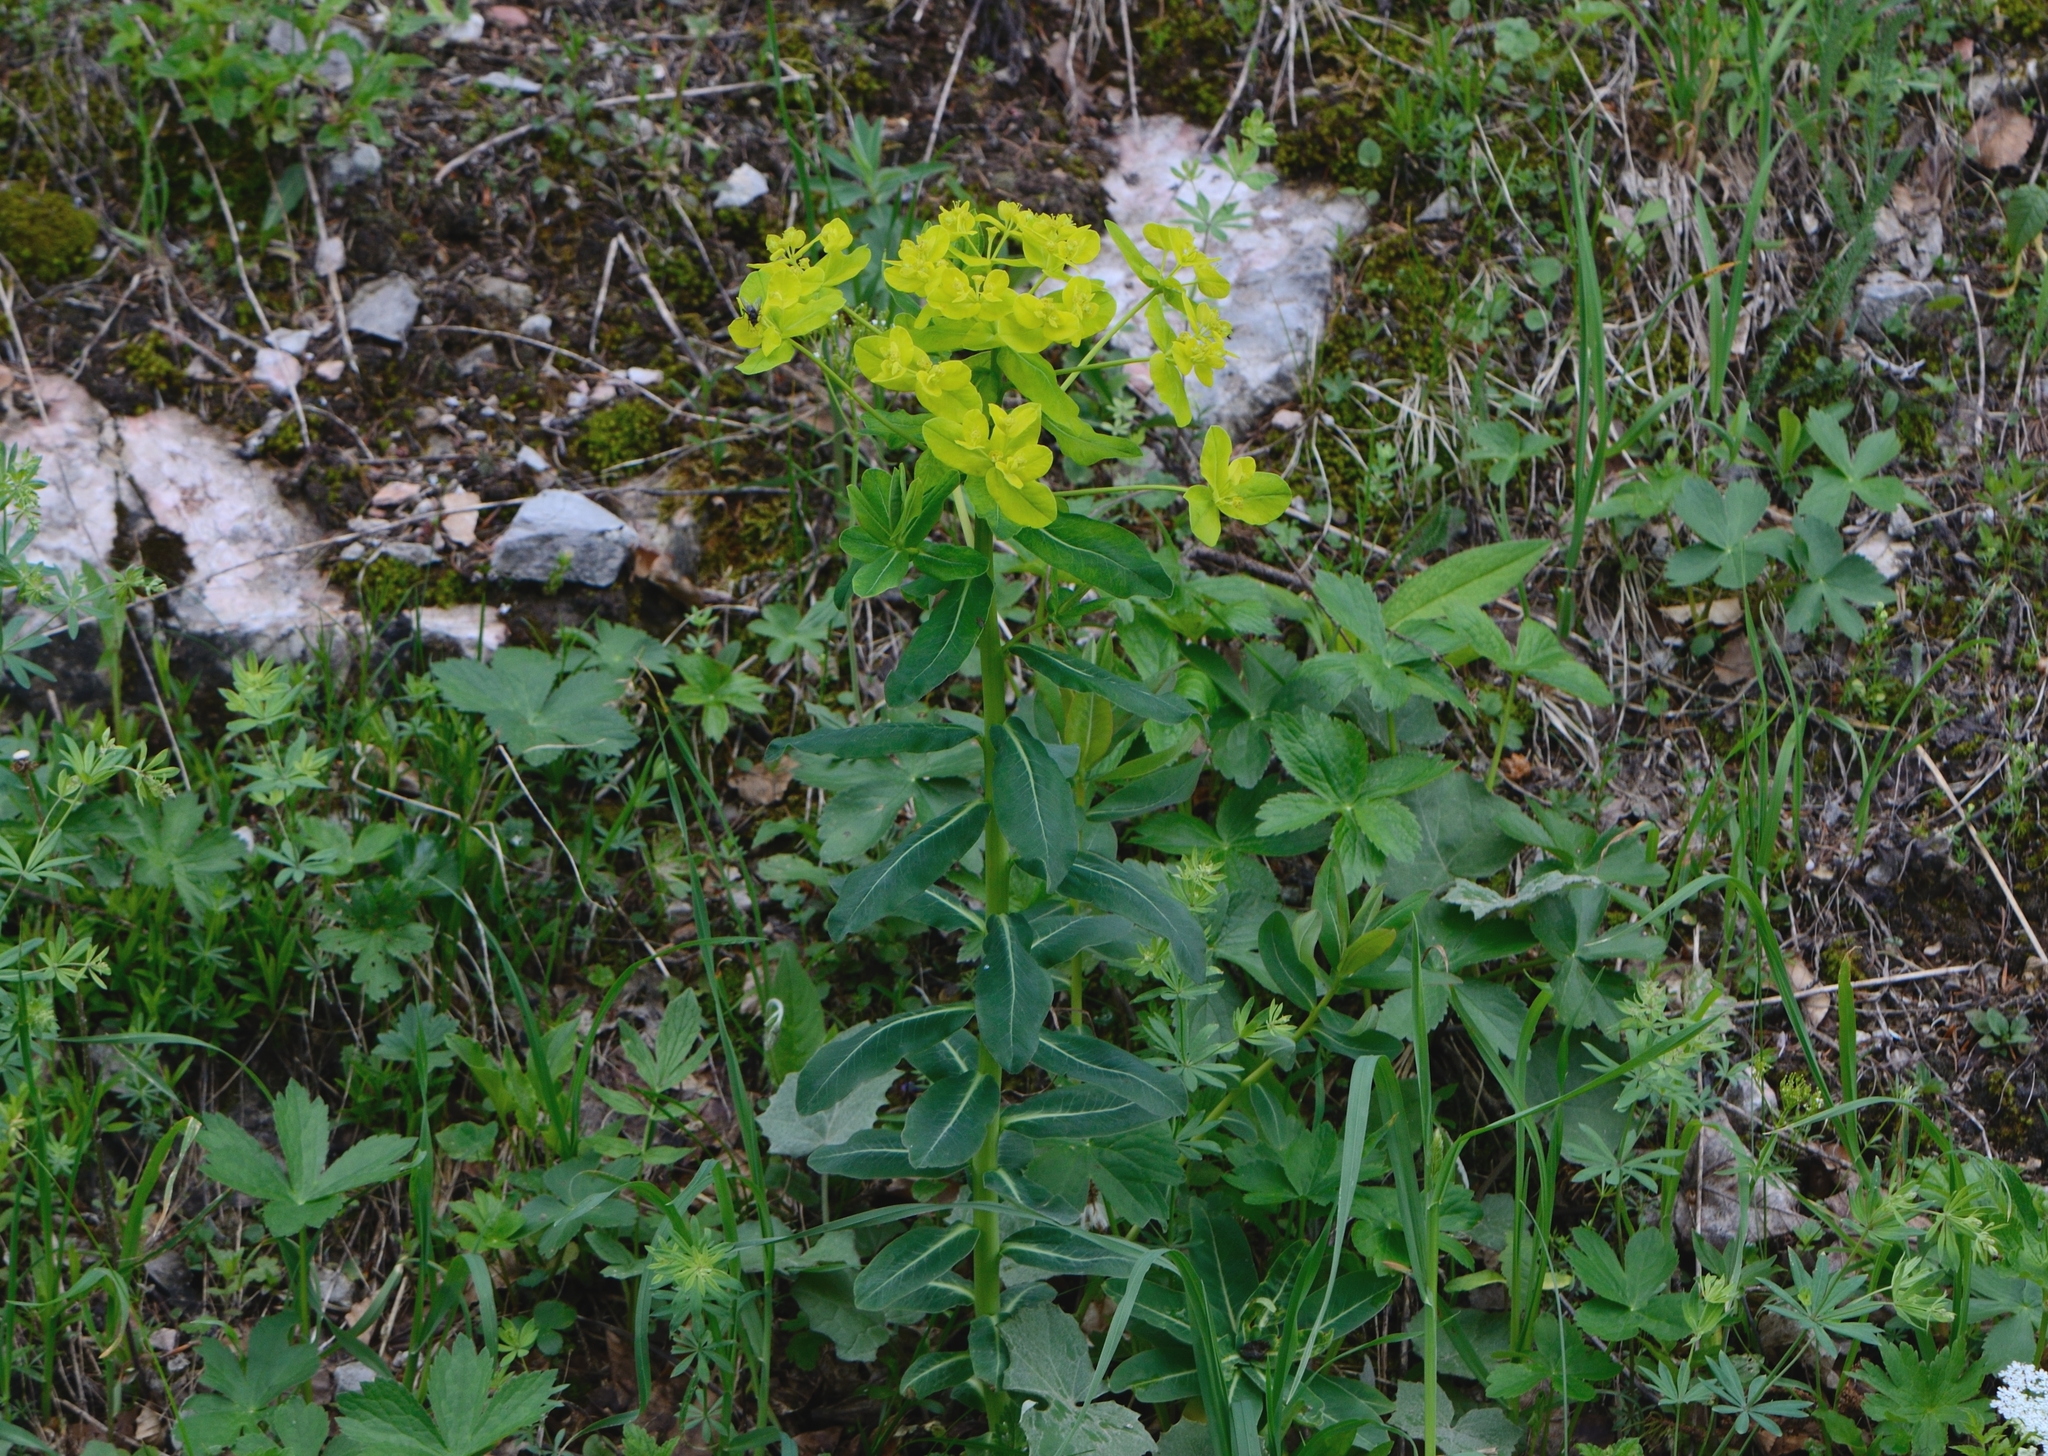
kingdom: Plantae
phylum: Tracheophyta
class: Magnoliopsida
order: Malpighiales
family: Euphorbiaceae
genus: Euphorbia
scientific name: Euphorbia austriaca
